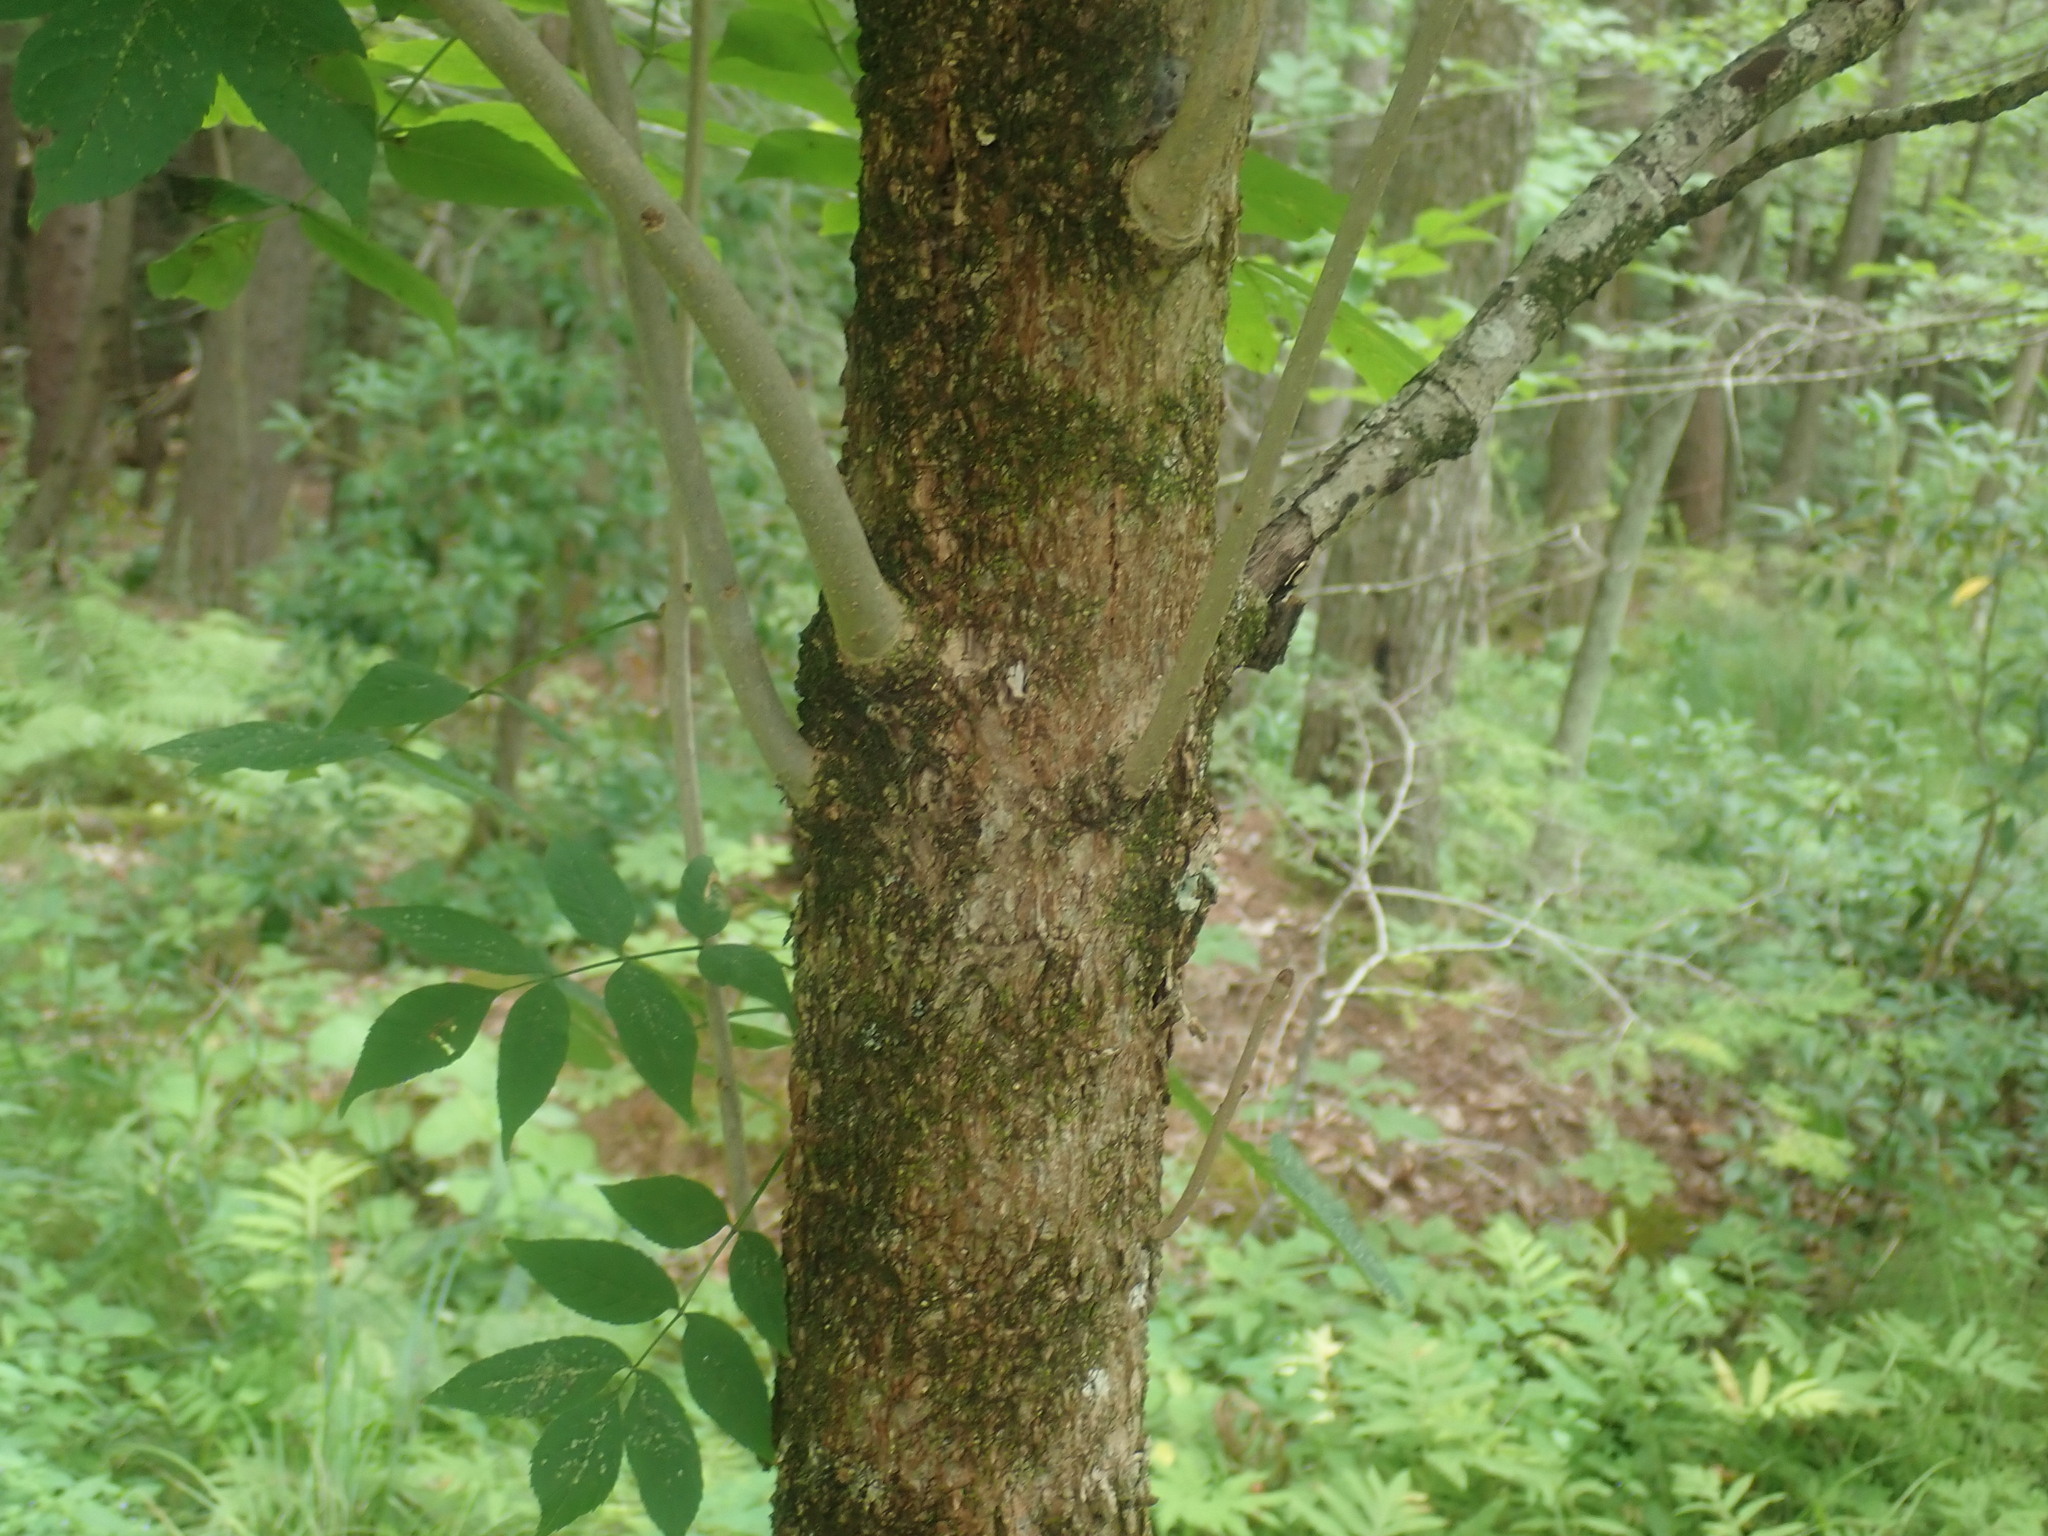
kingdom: Plantae
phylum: Tracheophyta
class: Magnoliopsida
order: Lamiales
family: Oleaceae
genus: Fraxinus
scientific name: Fraxinus nigra
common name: Black ash
